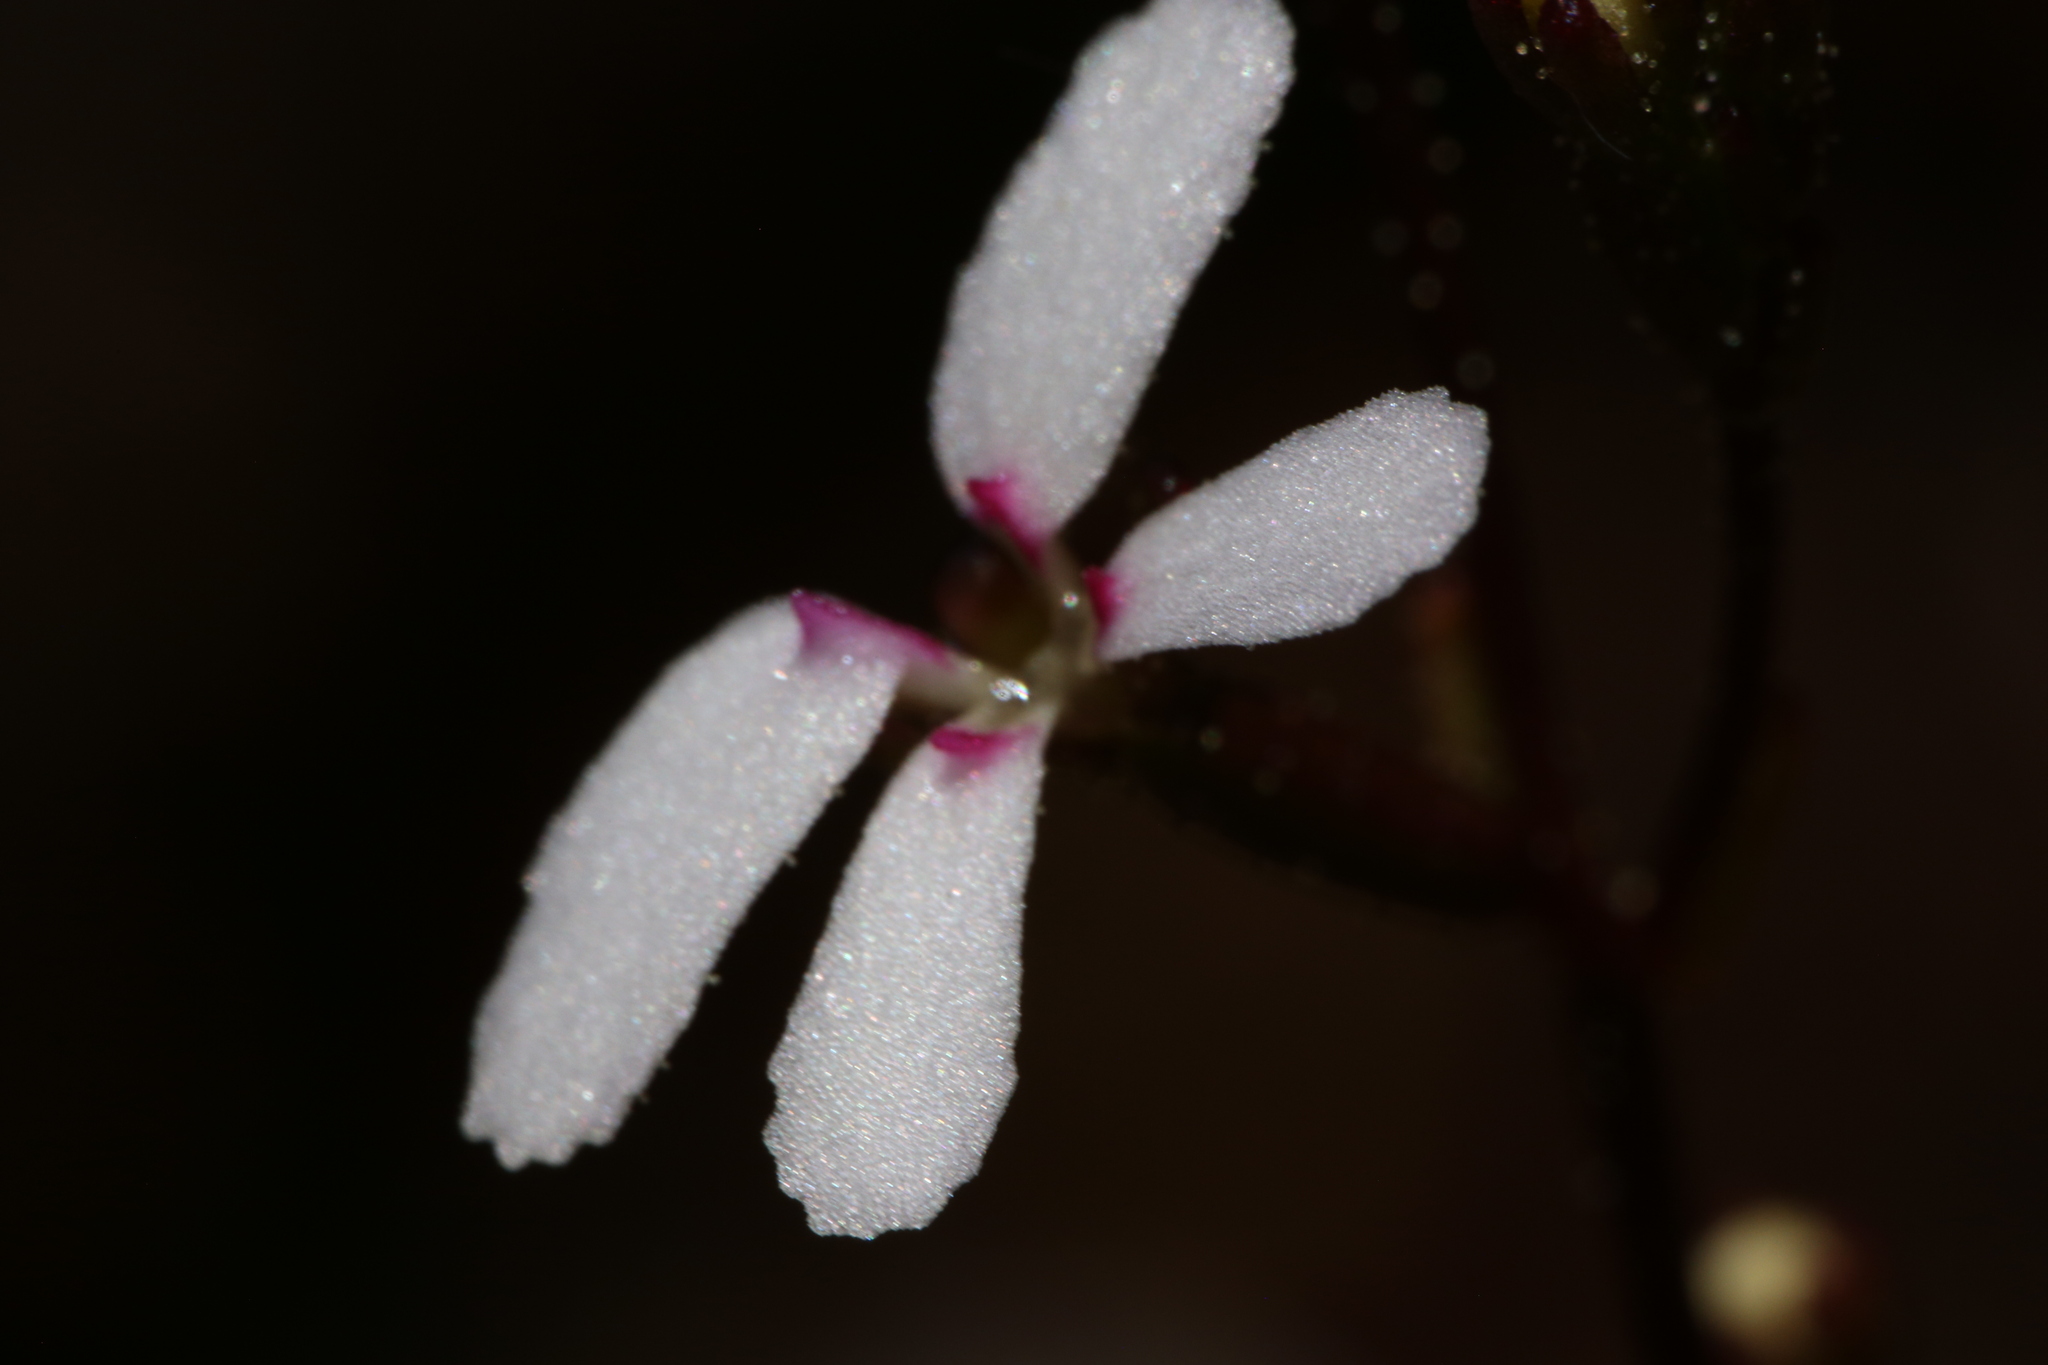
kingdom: Plantae
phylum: Tracheophyta
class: Magnoliopsida
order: Asterales
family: Stylidiaceae
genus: Stylidium
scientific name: Stylidium pygmaeum
